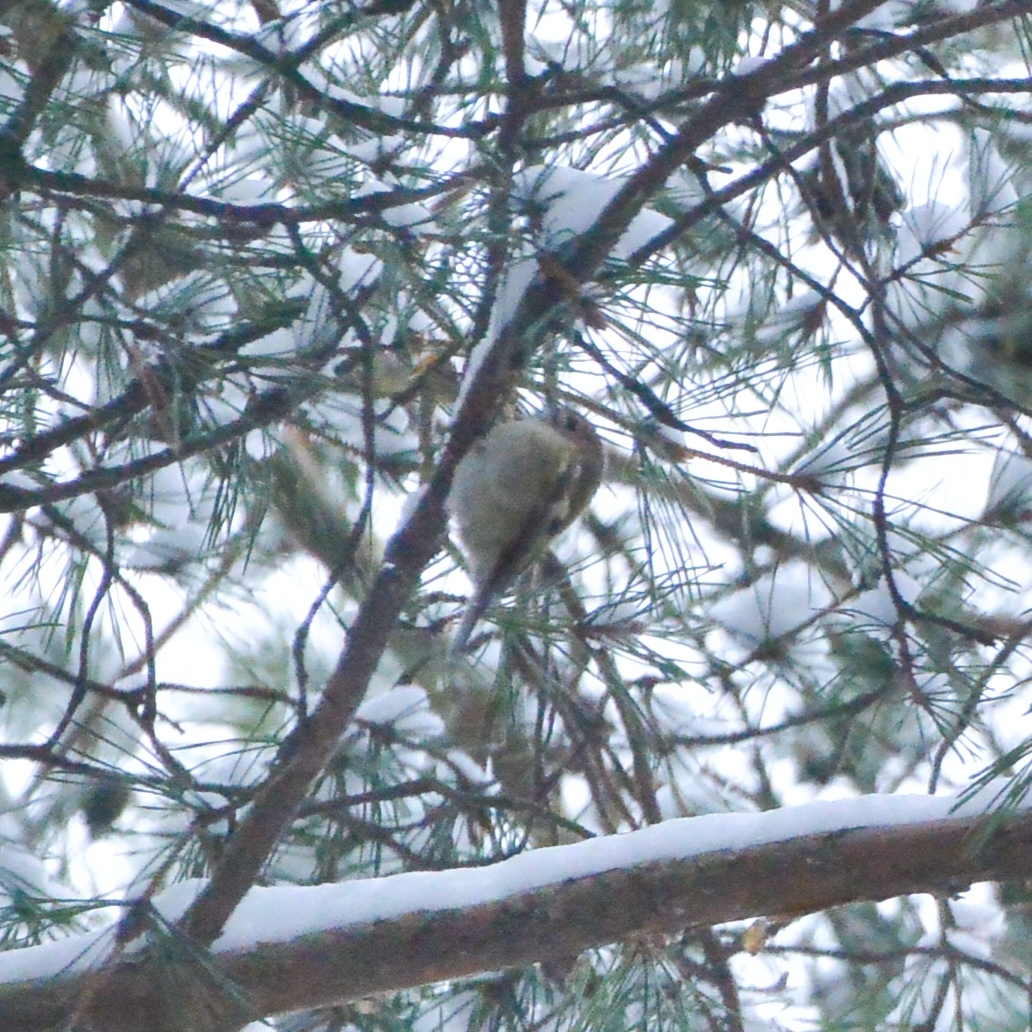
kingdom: Animalia
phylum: Chordata
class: Aves
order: Passeriformes
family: Regulidae
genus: Regulus
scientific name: Regulus regulus
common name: Goldcrest
